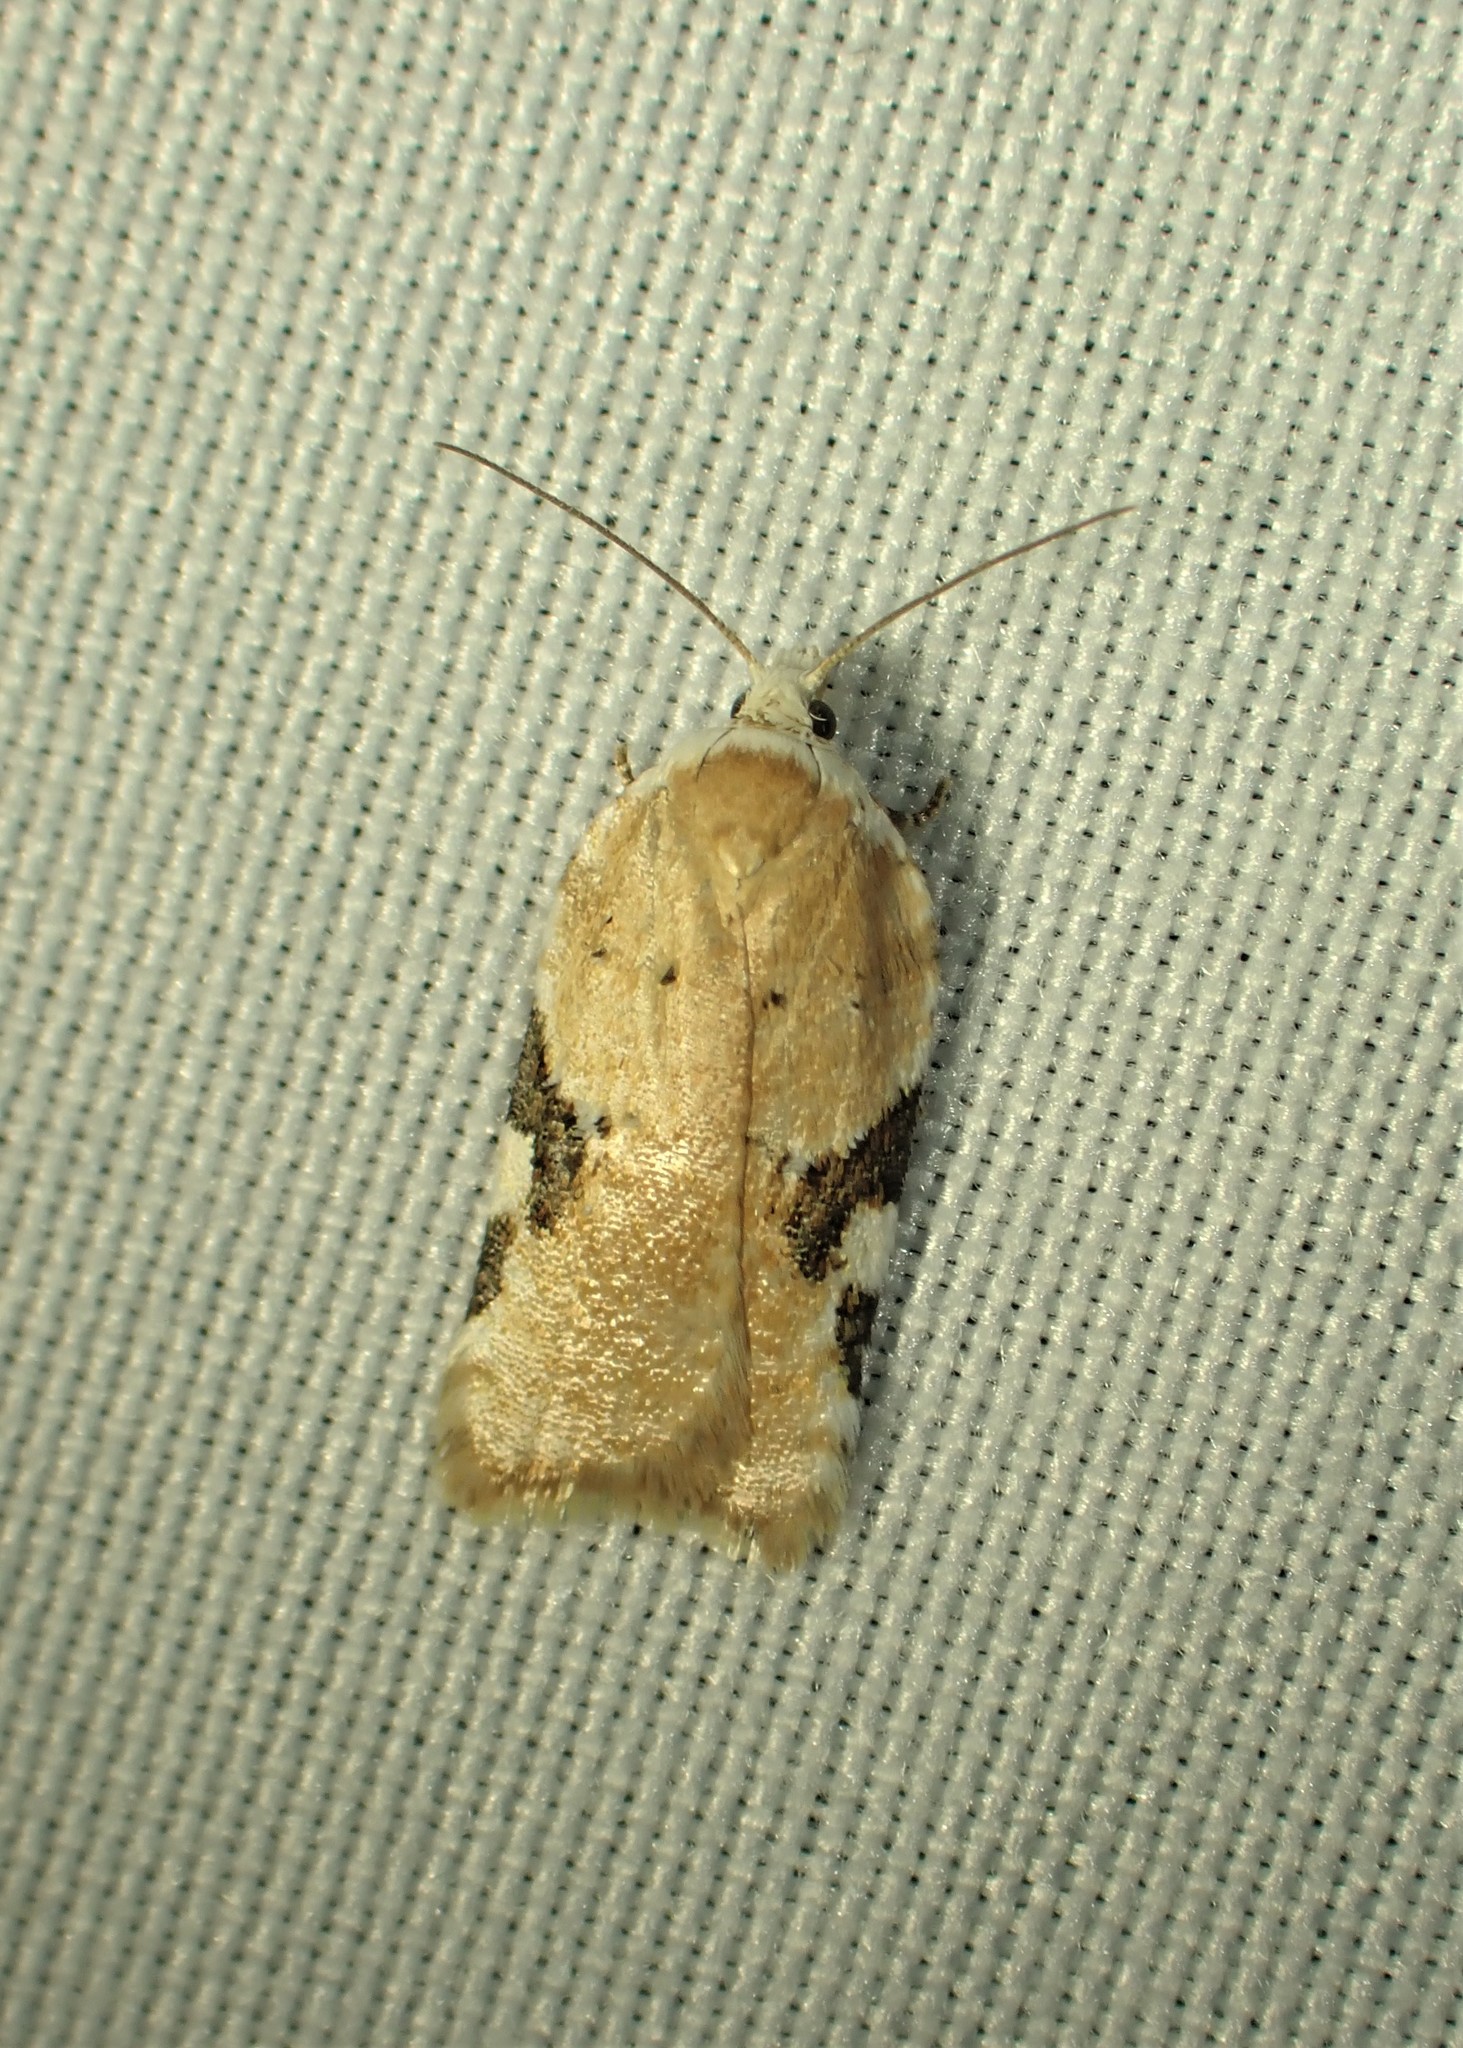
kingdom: Animalia
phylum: Arthropoda
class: Insecta
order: Lepidoptera
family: Tortricidae
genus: Acleris
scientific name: Acleris cervinana
